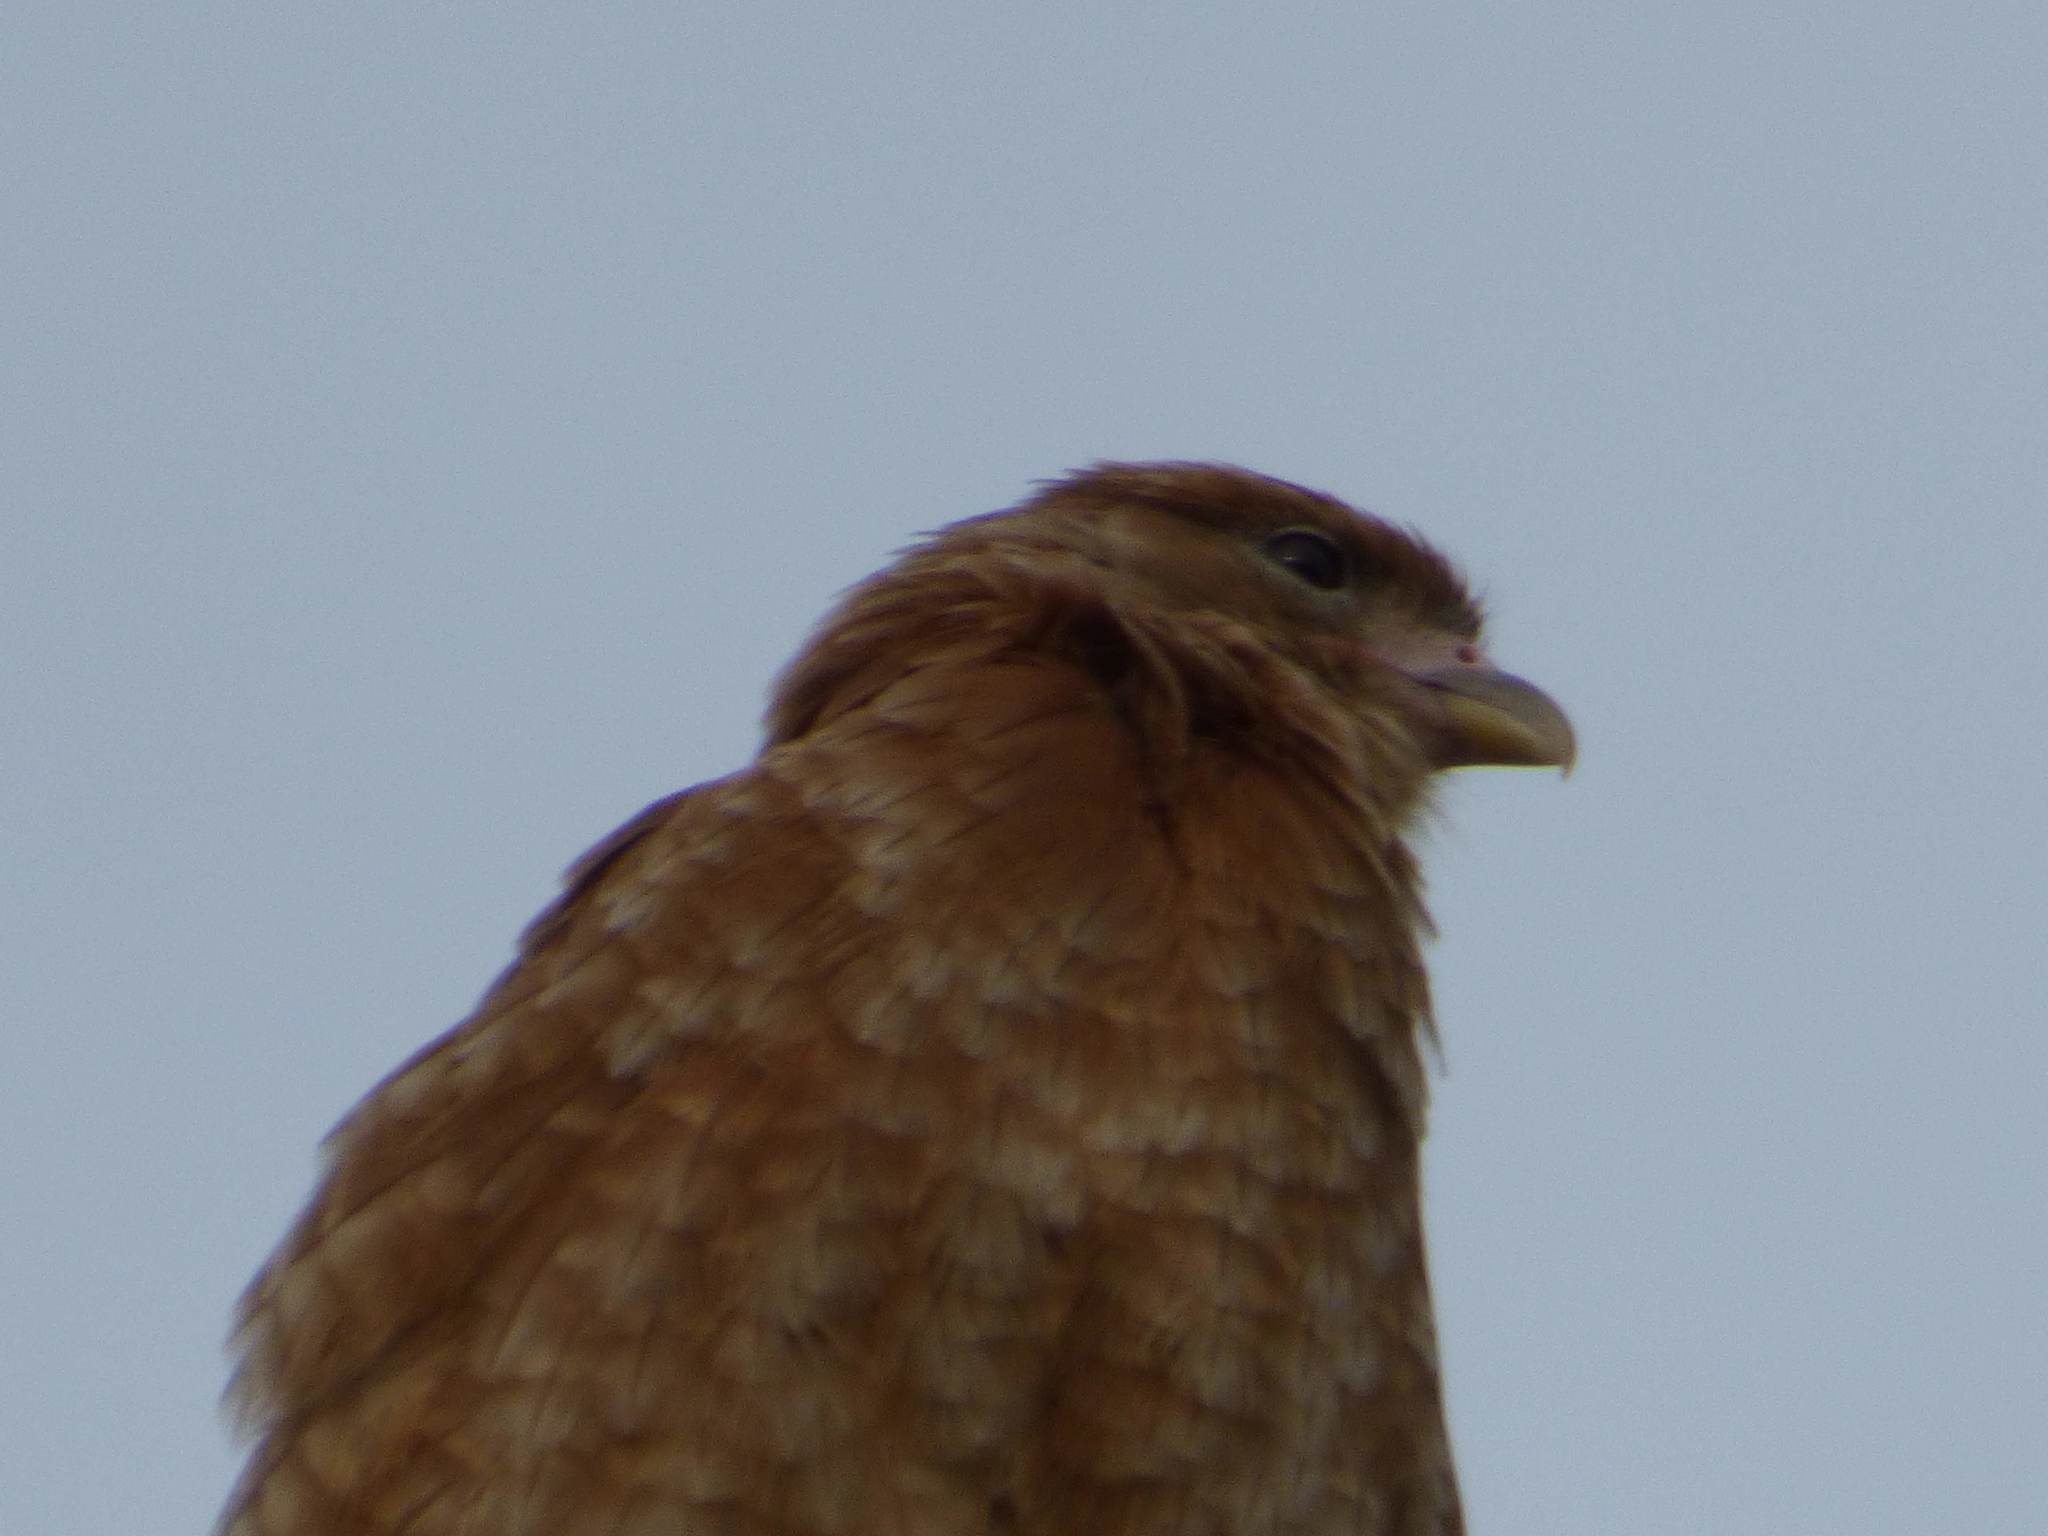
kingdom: Animalia
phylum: Chordata
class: Aves
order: Falconiformes
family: Falconidae
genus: Daptrius
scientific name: Daptrius
